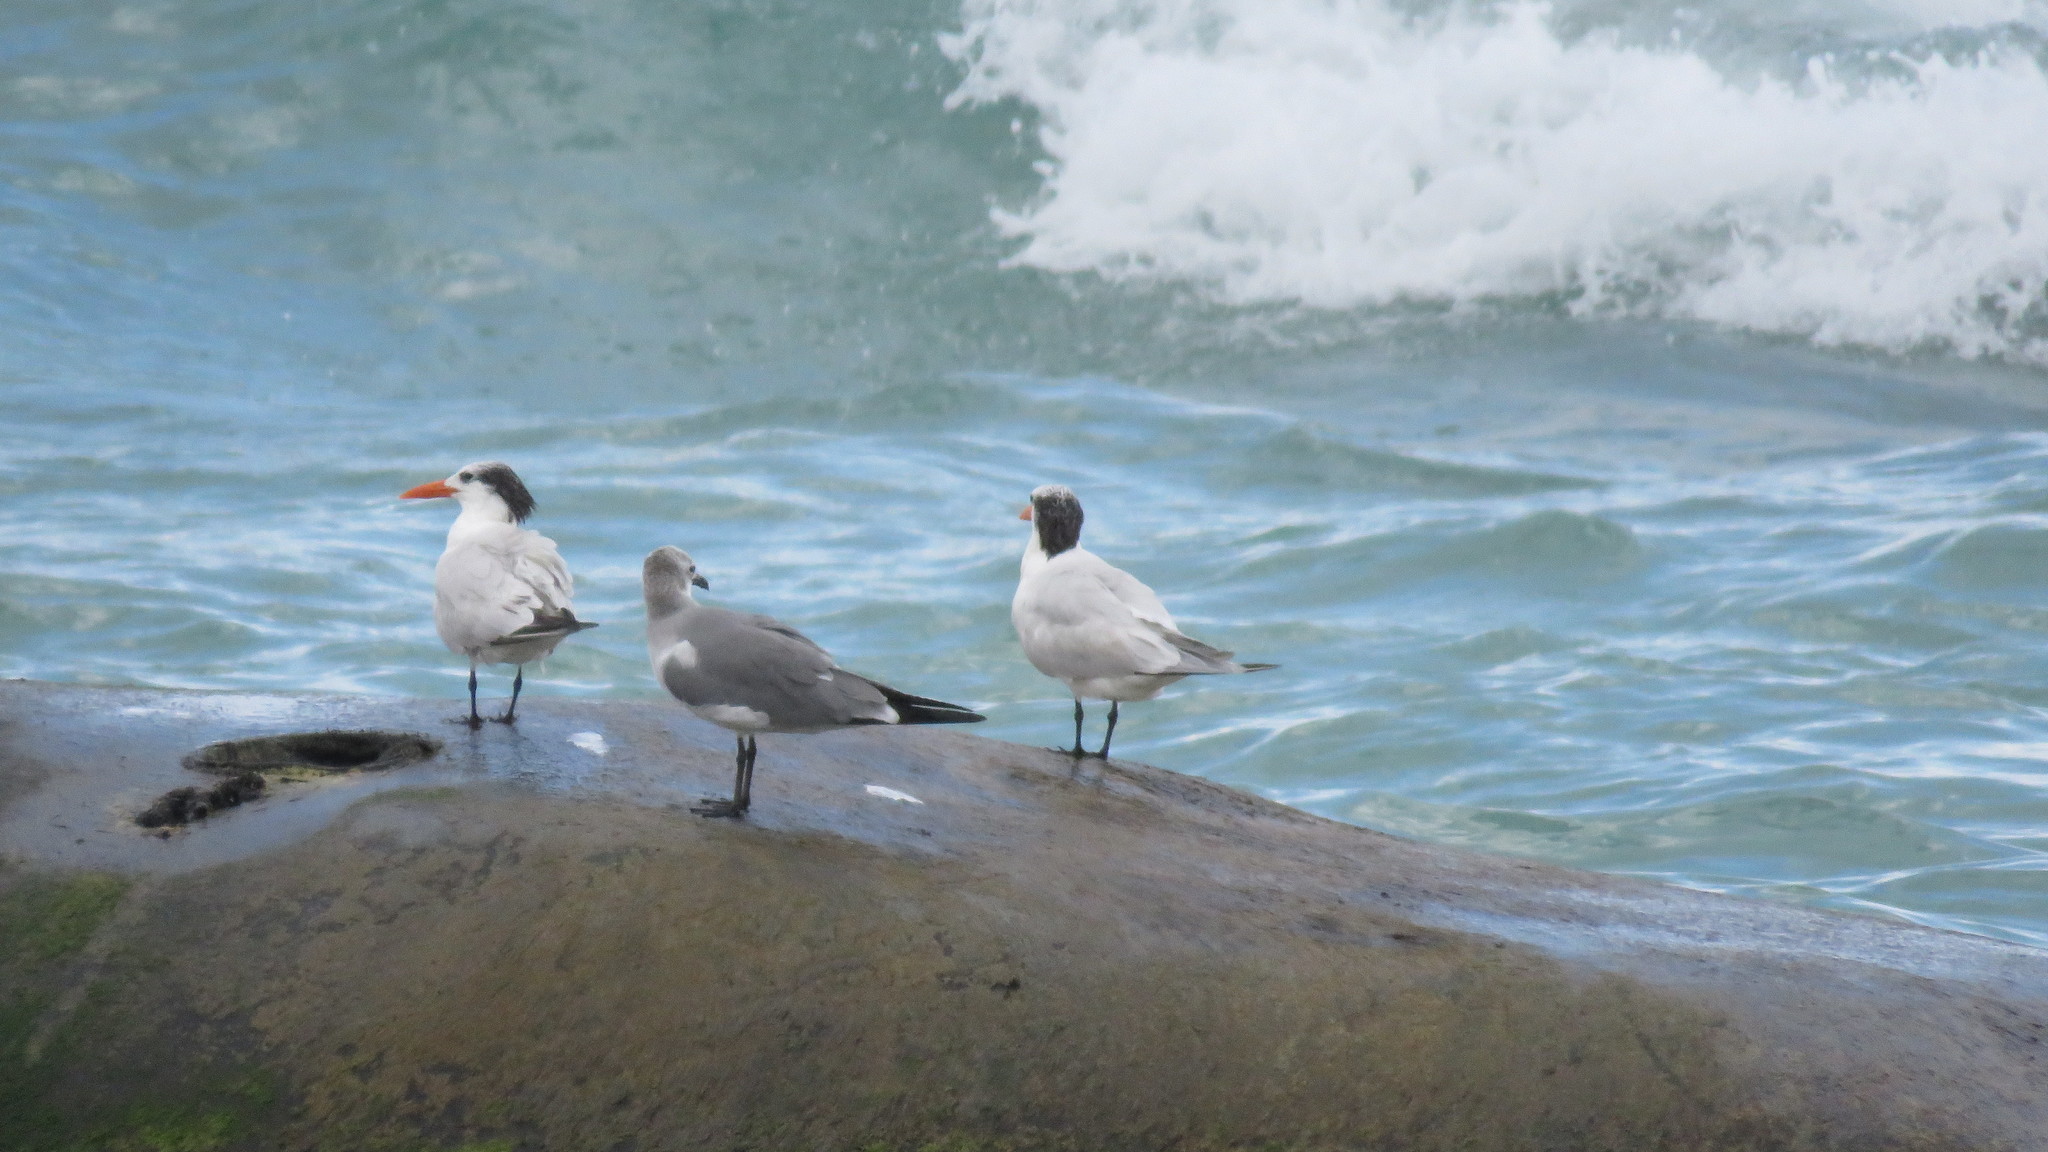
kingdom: Animalia
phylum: Chordata
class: Aves
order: Charadriiformes
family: Laridae
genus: Thalasseus
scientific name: Thalasseus maximus
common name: Royal tern
